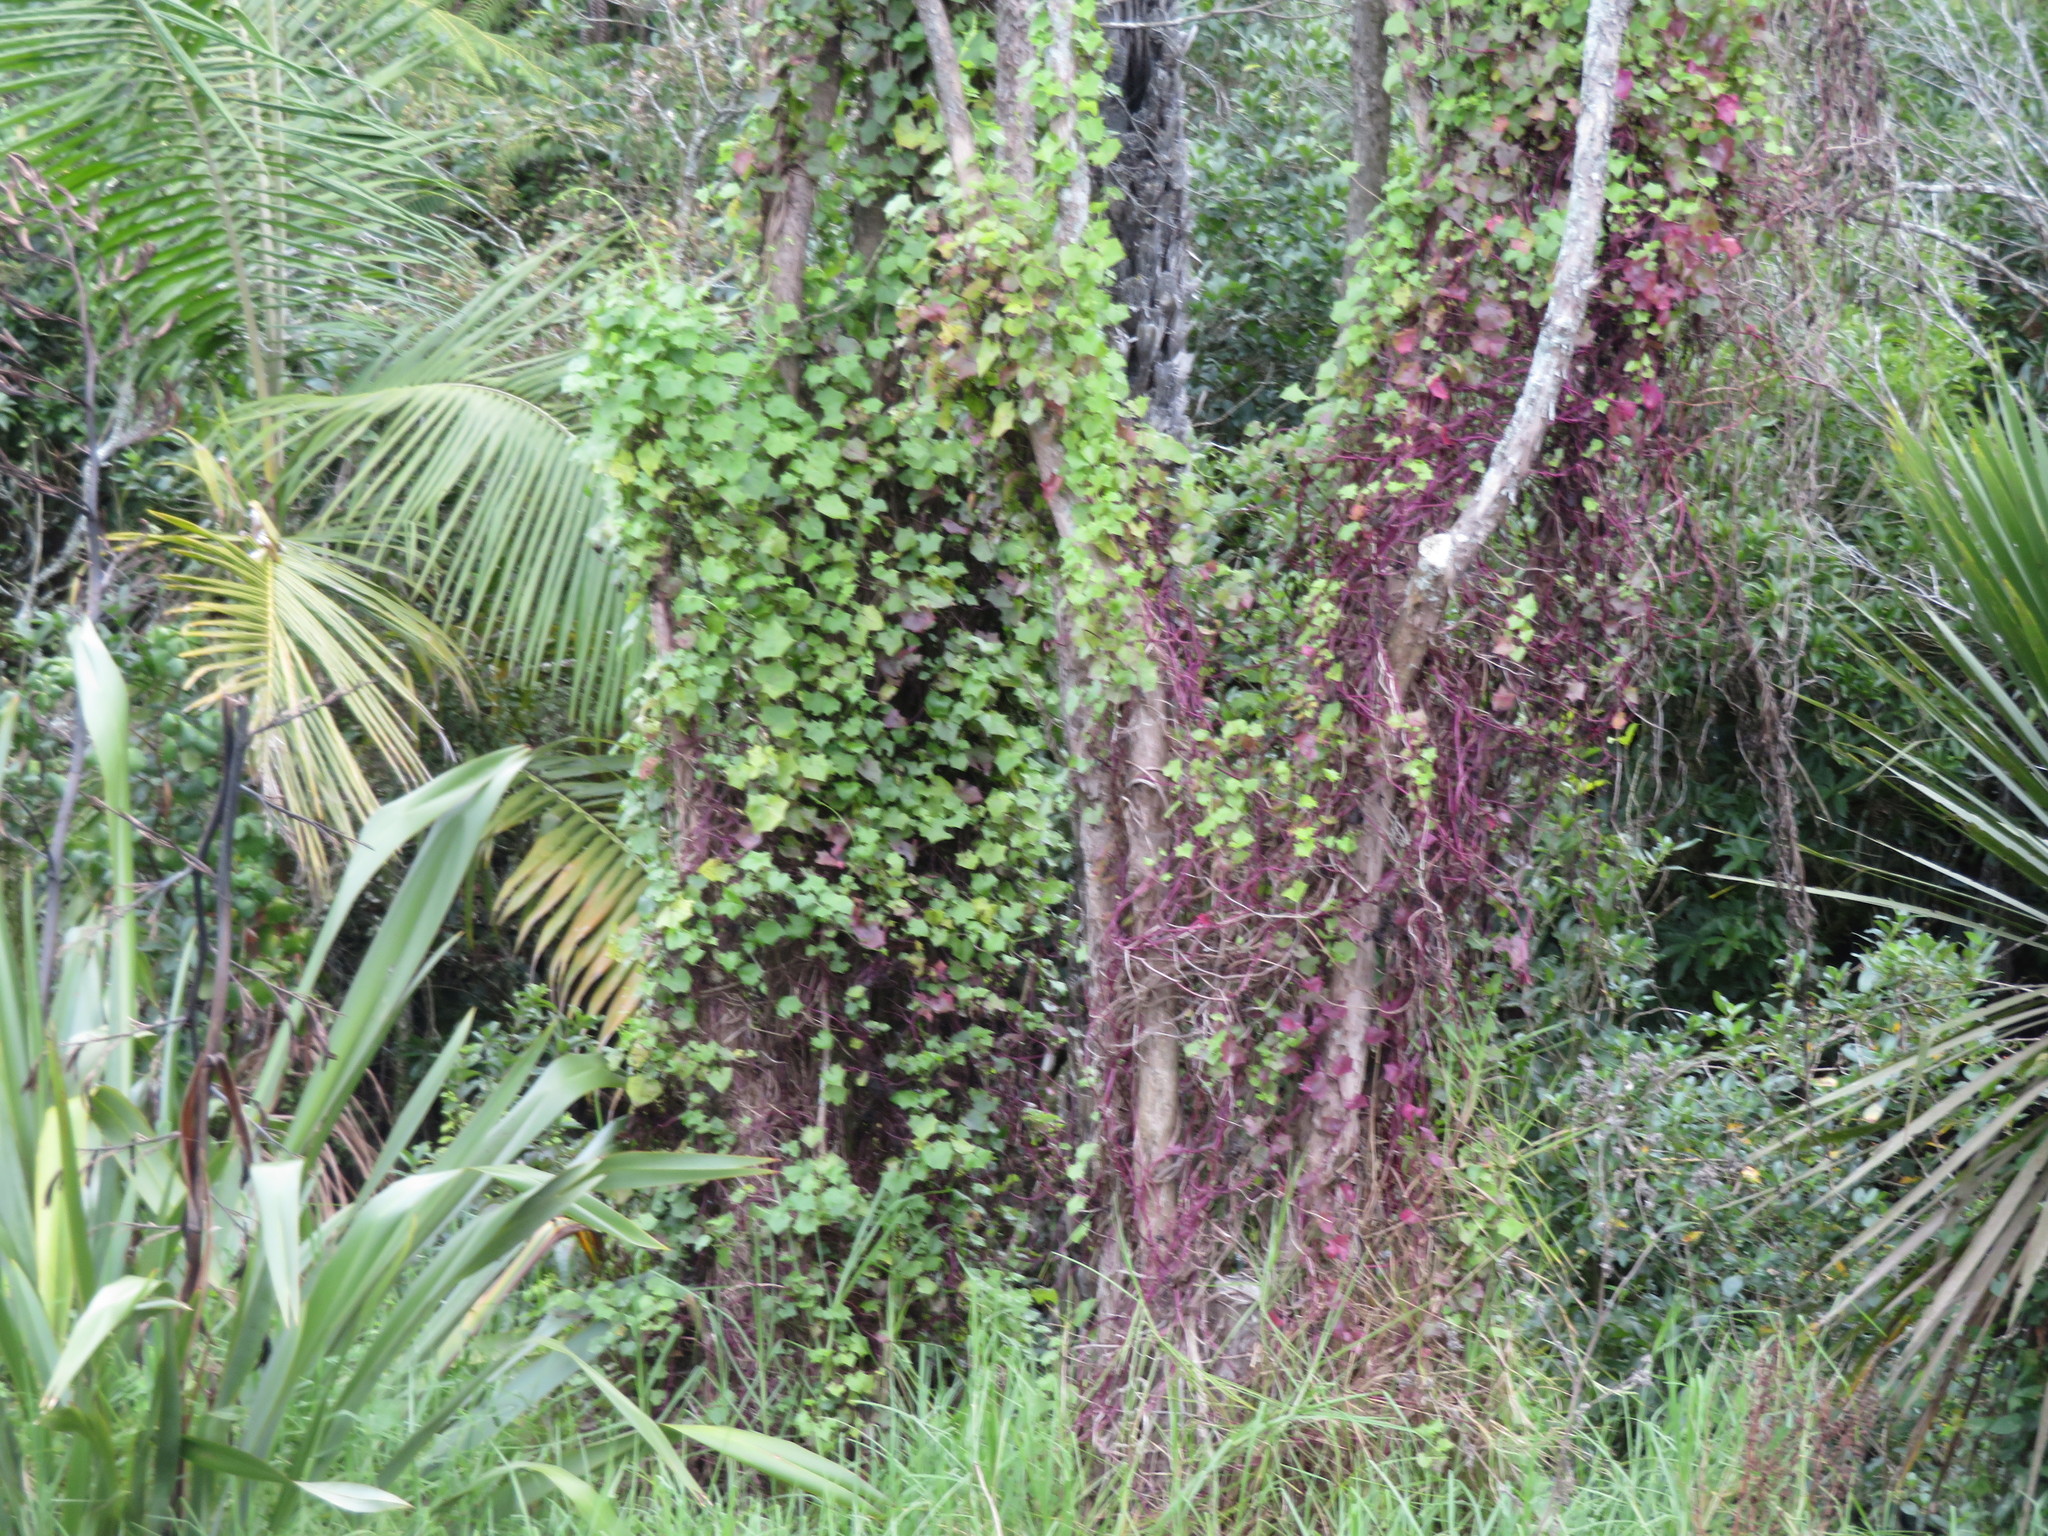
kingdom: Plantae
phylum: Tracheophyta
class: Liliopsida
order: Arecales
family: Arecaceae
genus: Archontophoenix
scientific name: Archontophoenix cunninghamiana
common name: Piccabeen bangalow palm
